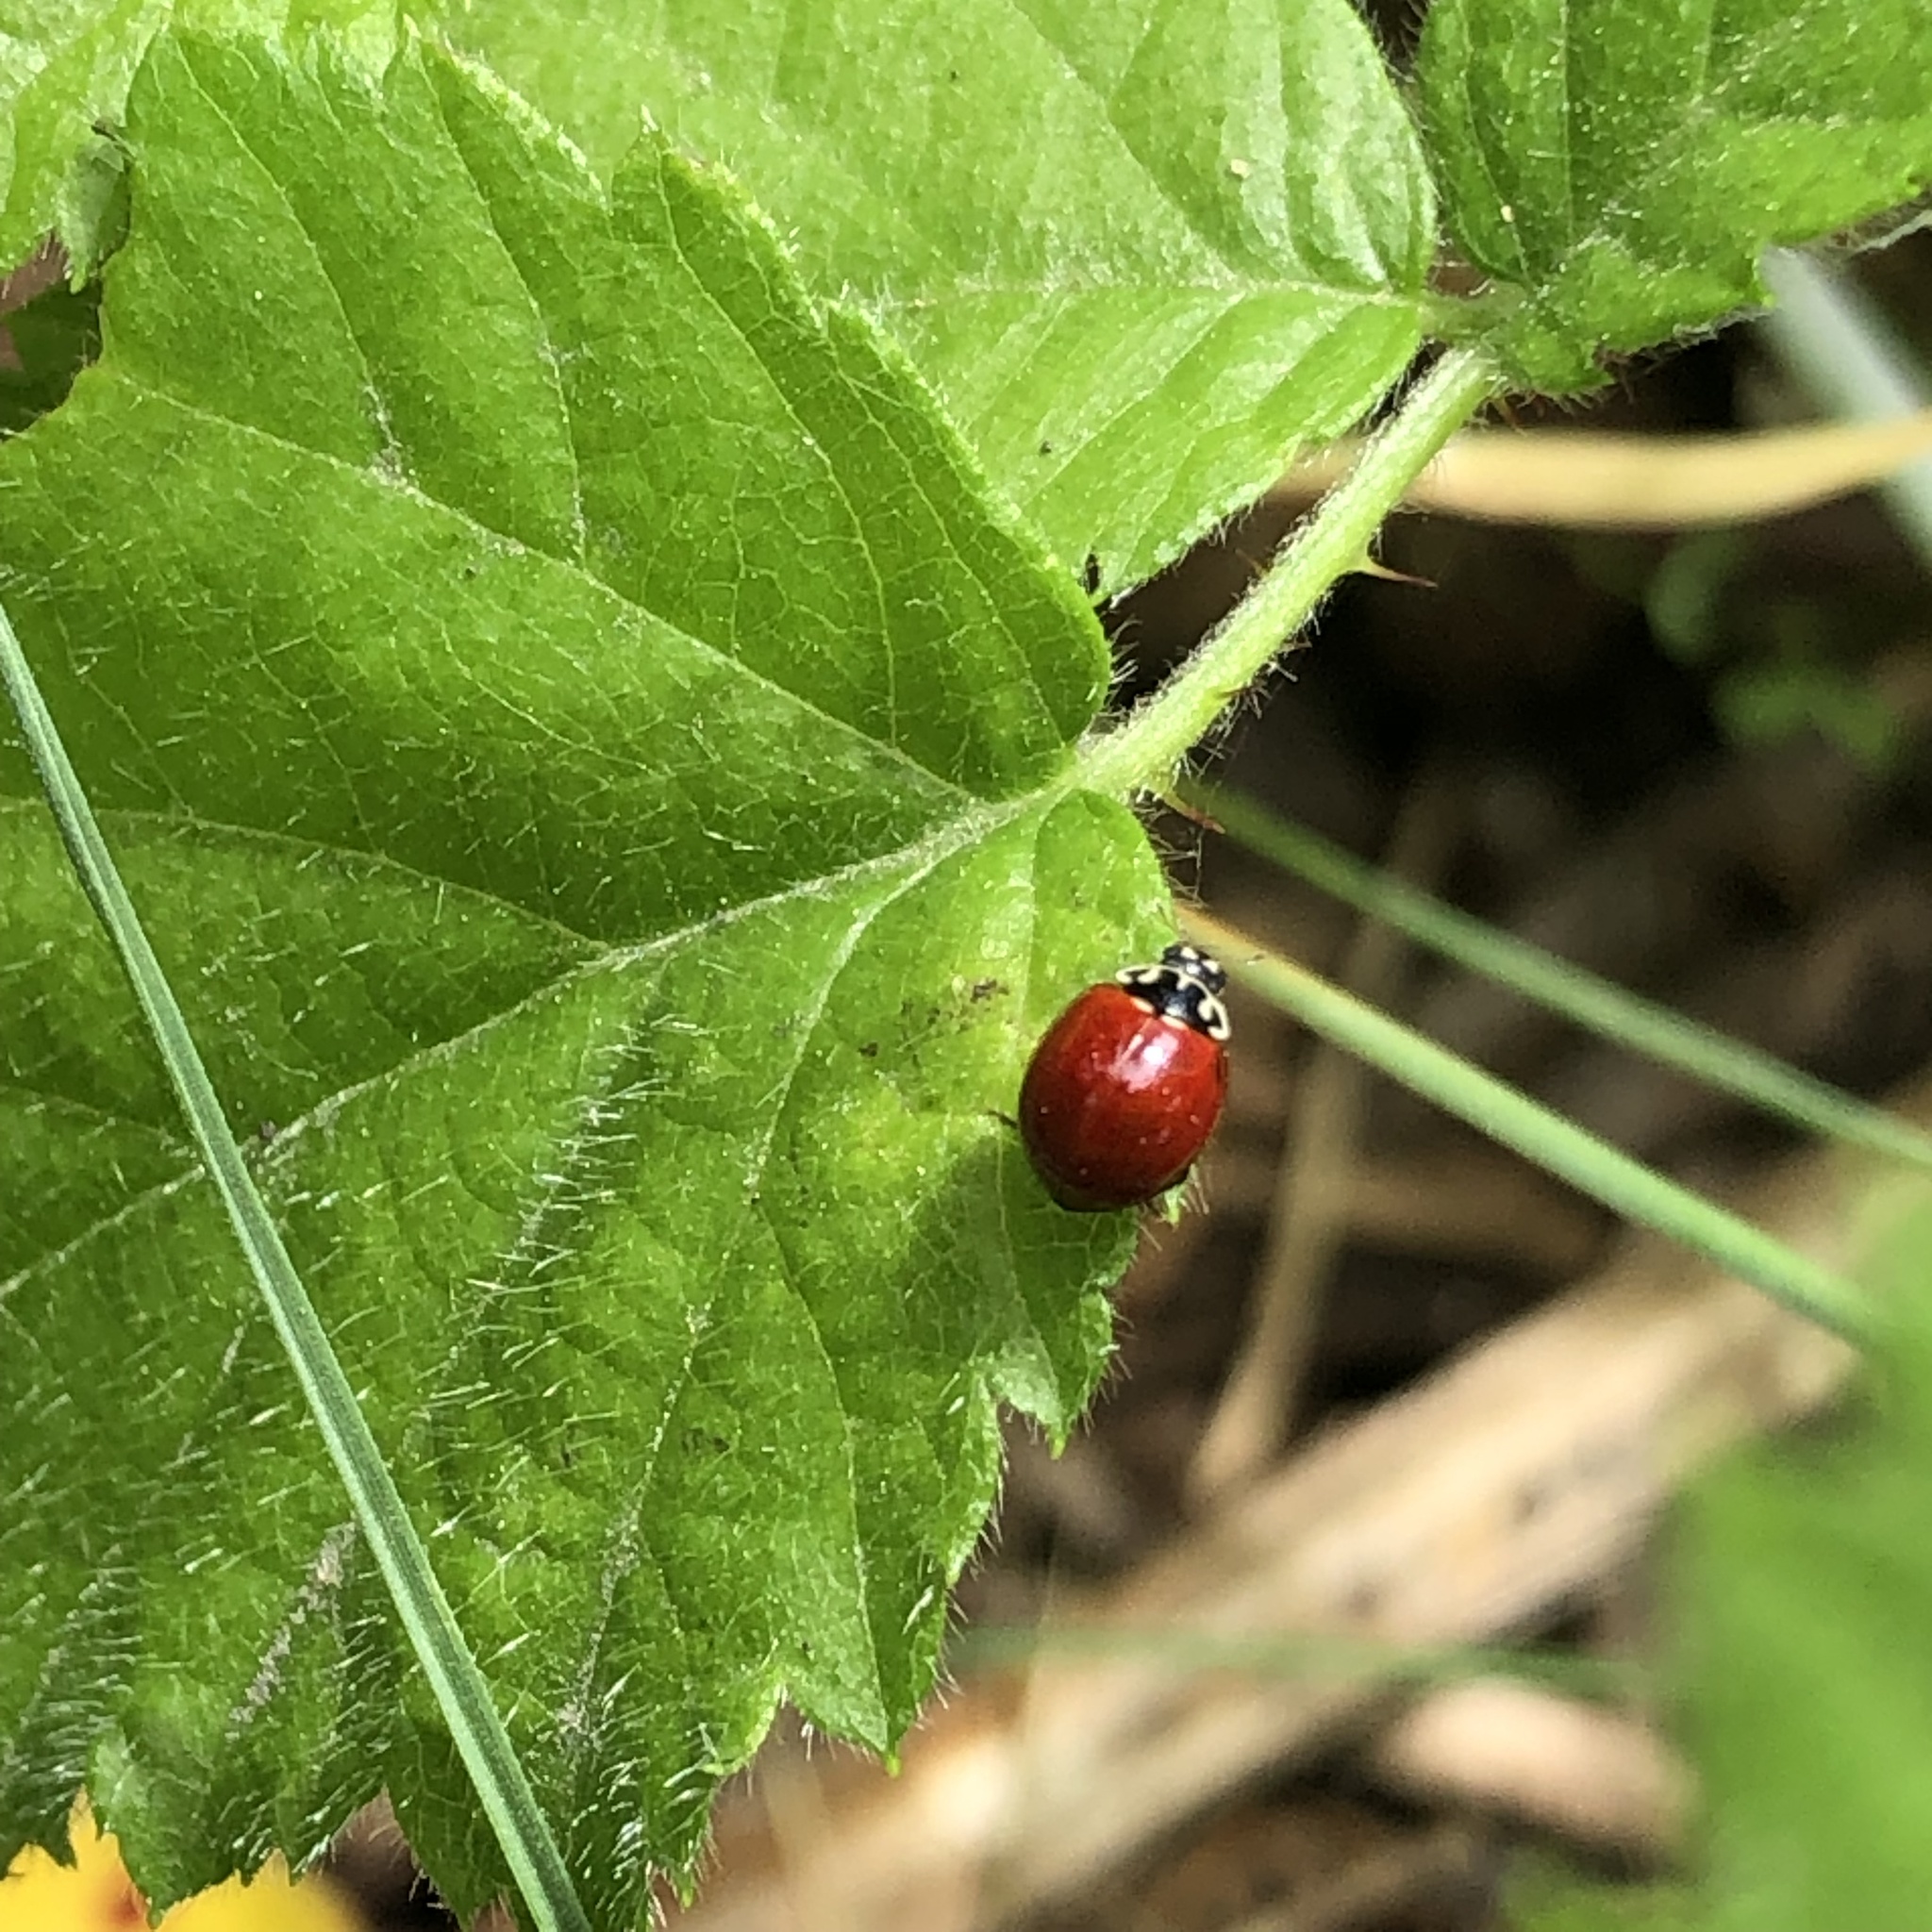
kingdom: Animalia
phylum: Arthropoda
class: Insecta
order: Coleoptera
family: Coccinellidae
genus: Cycloneda
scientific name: Cycloneda polita
